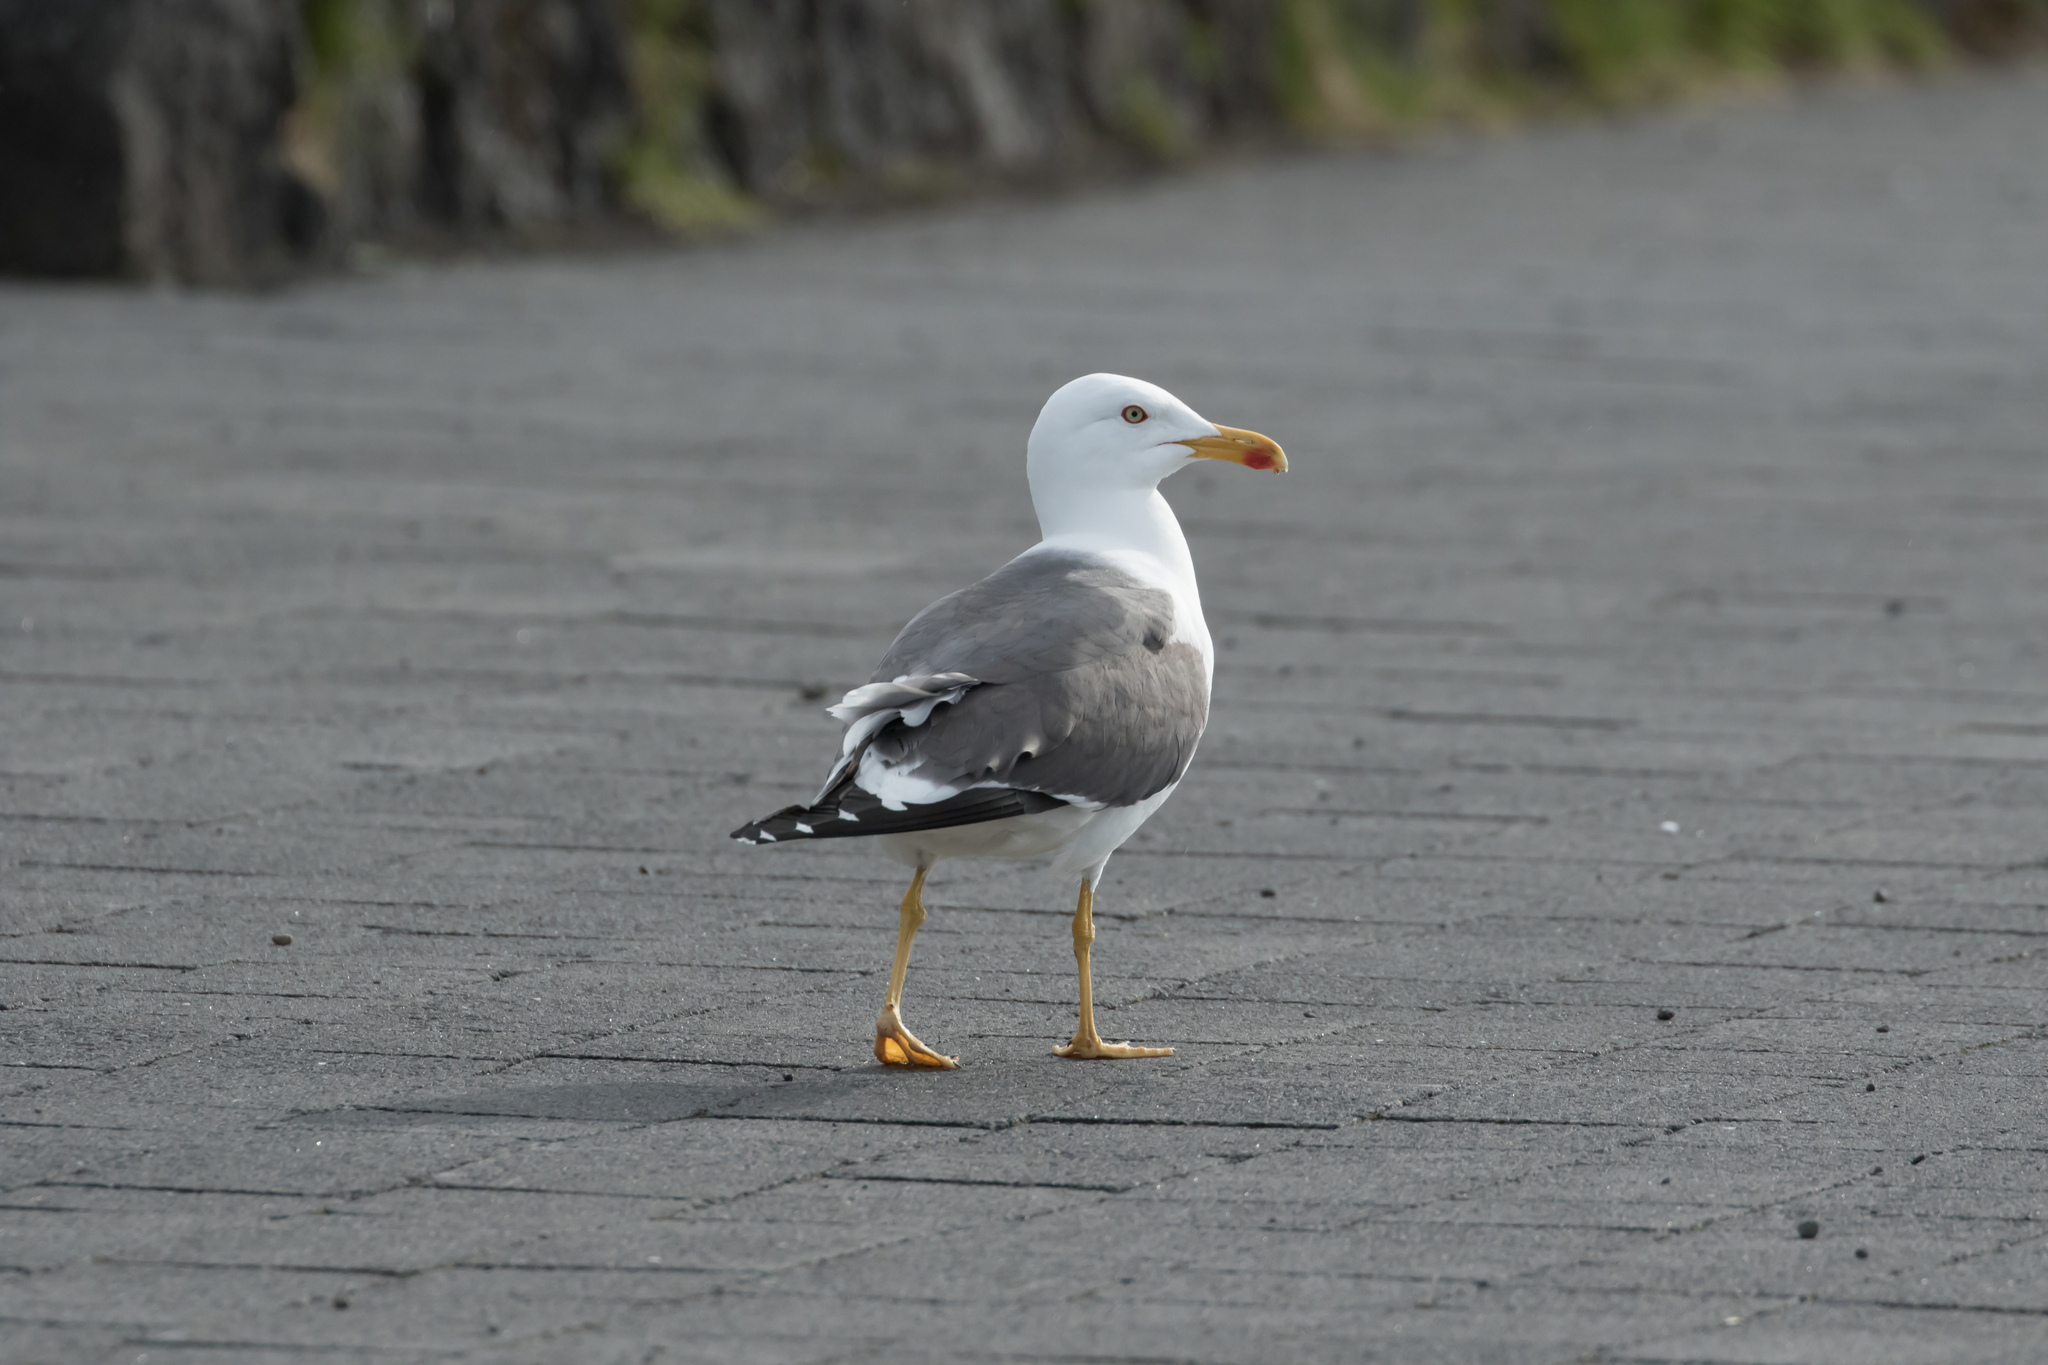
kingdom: Animalia
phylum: Chordata
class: Aves
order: Charadriiformes
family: Laridae
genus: Larus
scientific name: Larus fuscus
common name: Lesser black-backed gull
